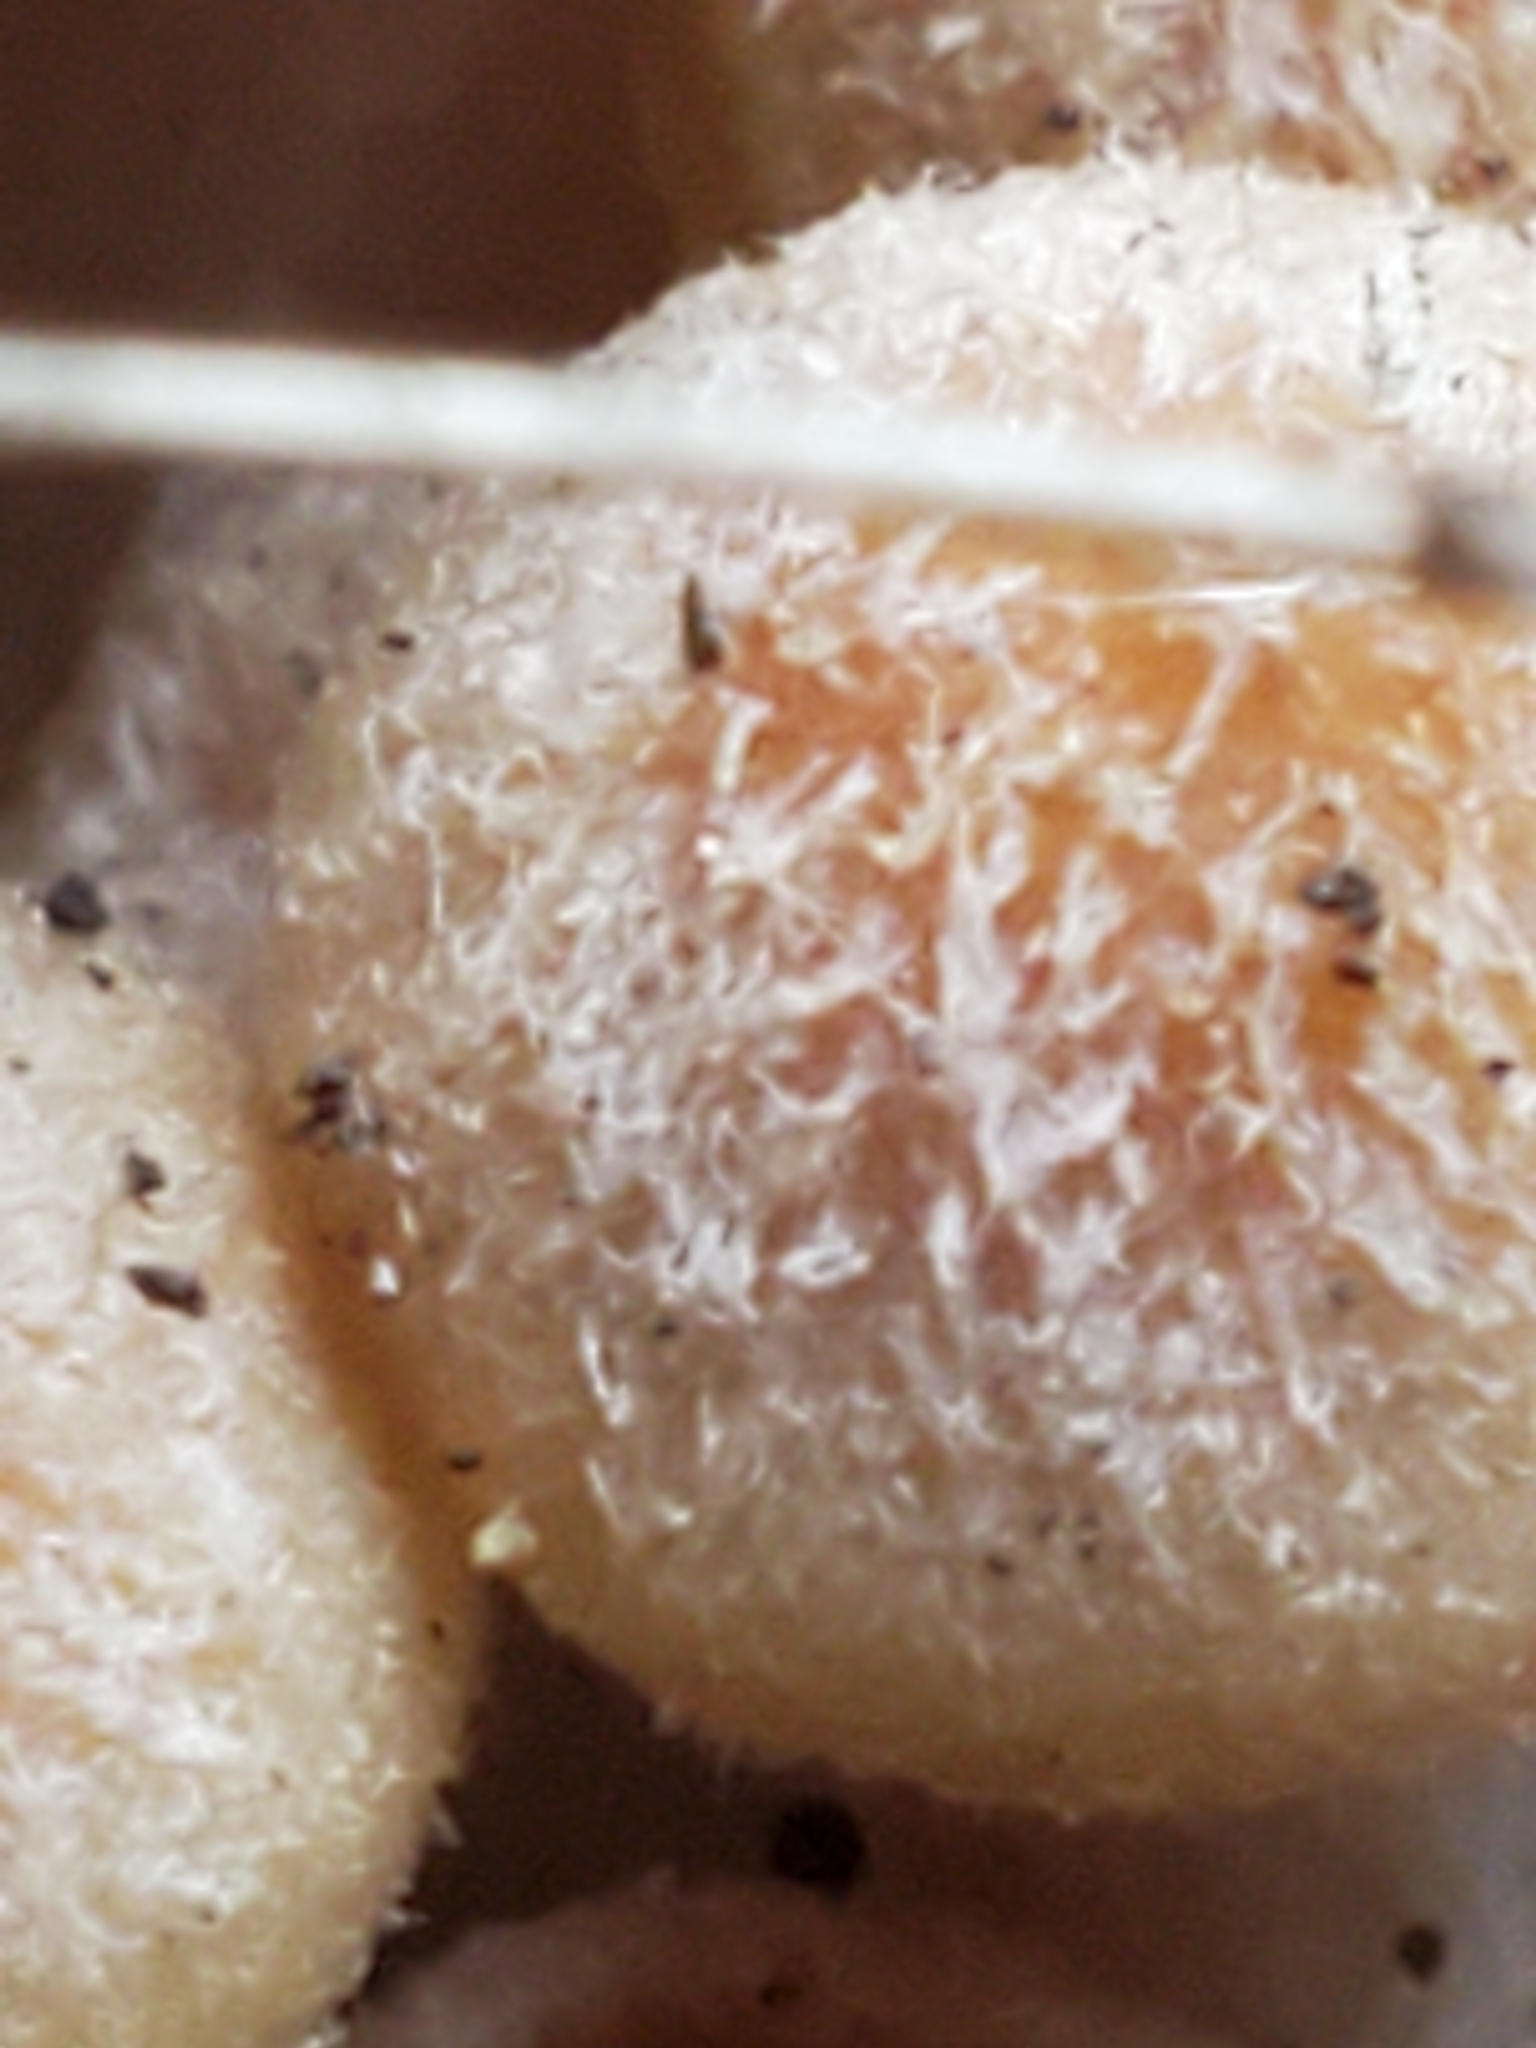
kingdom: Fungi
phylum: Basidiomycota
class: Agaricomycetes
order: Agaricales
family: Physalacriaceae
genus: Desarmillaria
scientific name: Desarmillaria caespitosa
